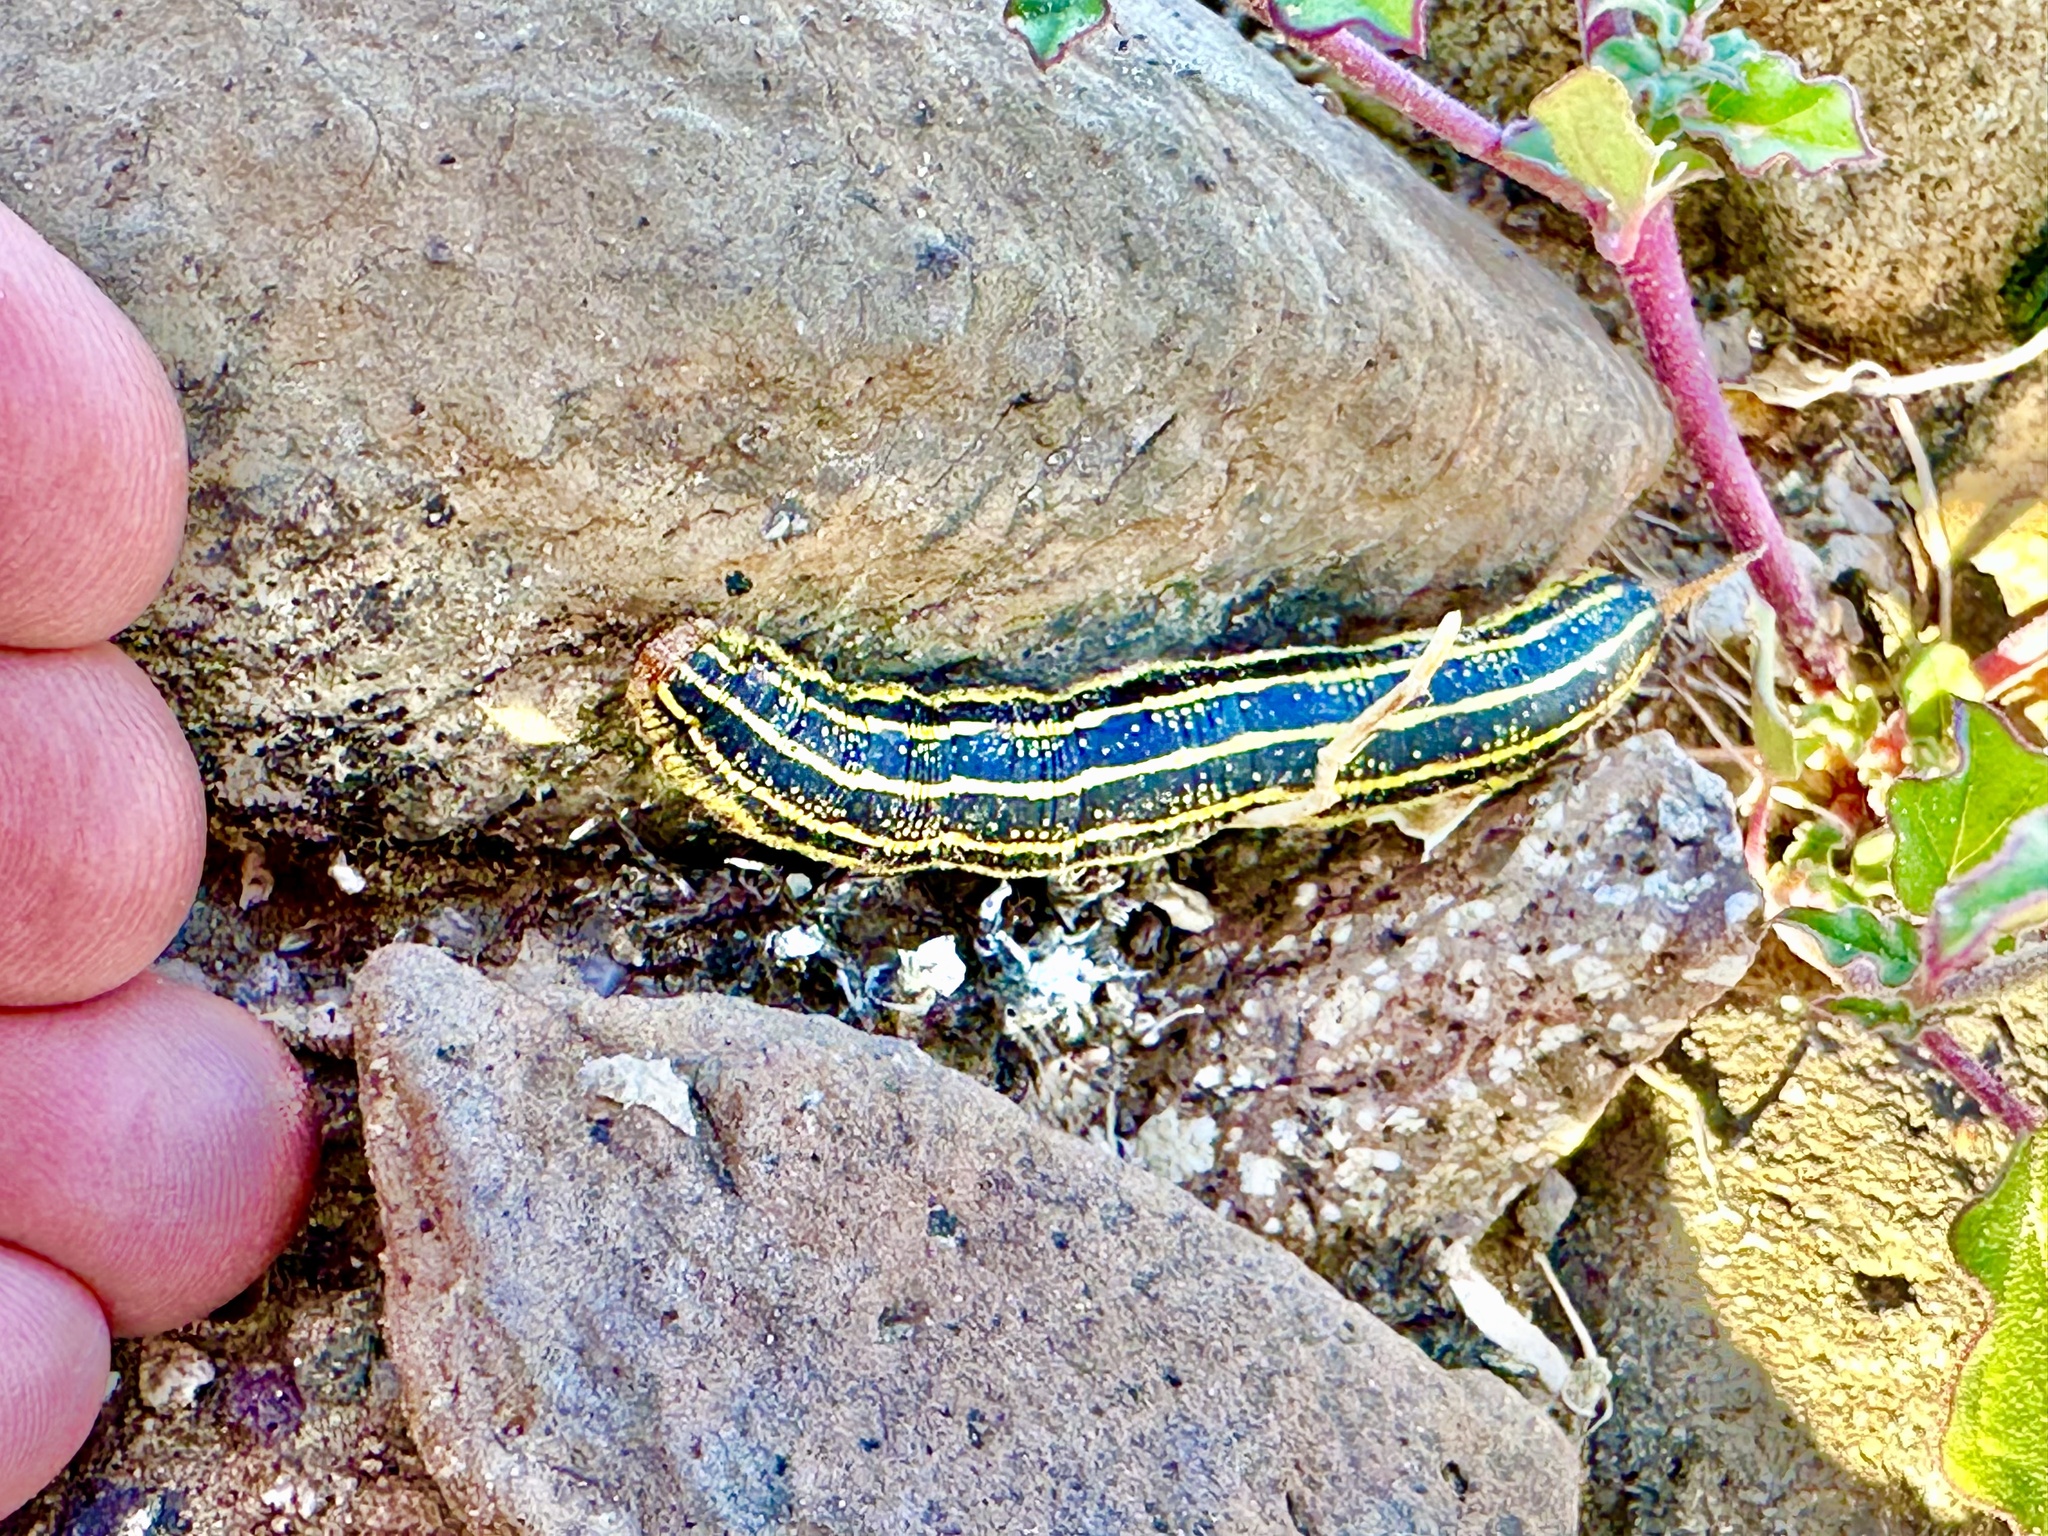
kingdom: Animalia
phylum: Arthropoda
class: Insecta
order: Lepidoptera
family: Sphingidae
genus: Hyles
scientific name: Hyles lineata
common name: White-lined sphinx
